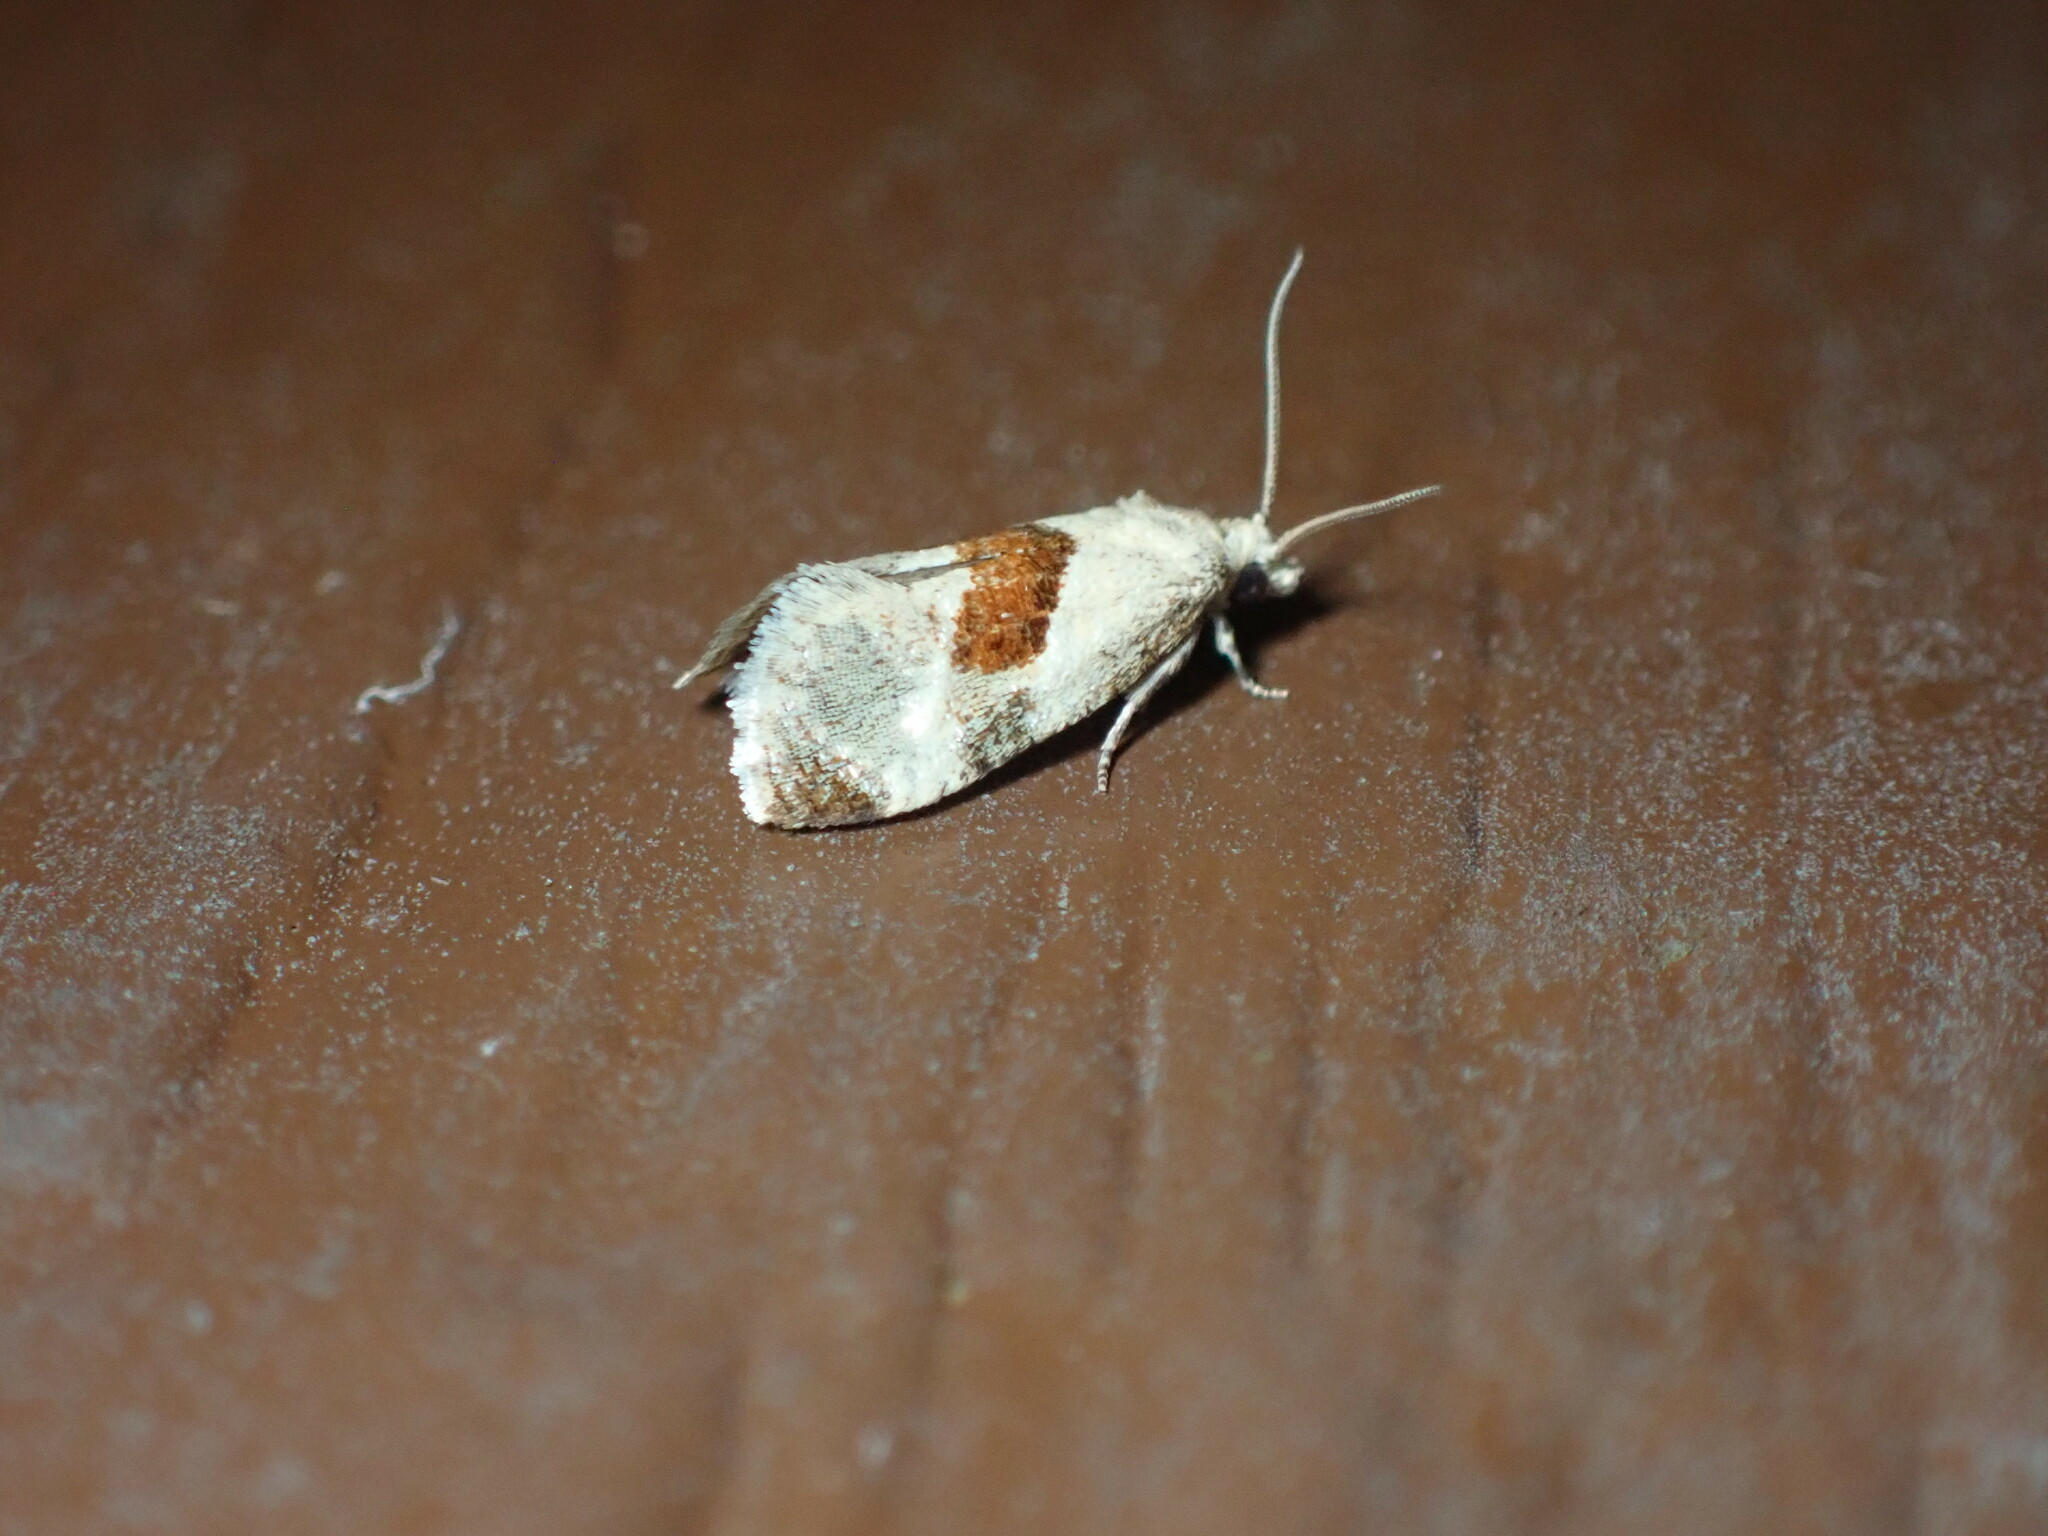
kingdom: Animalia
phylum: Arthropoda
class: Insecta
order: Lepidoptera
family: Tortricidae
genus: Phalonidia
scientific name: Phalonidia lepidana
